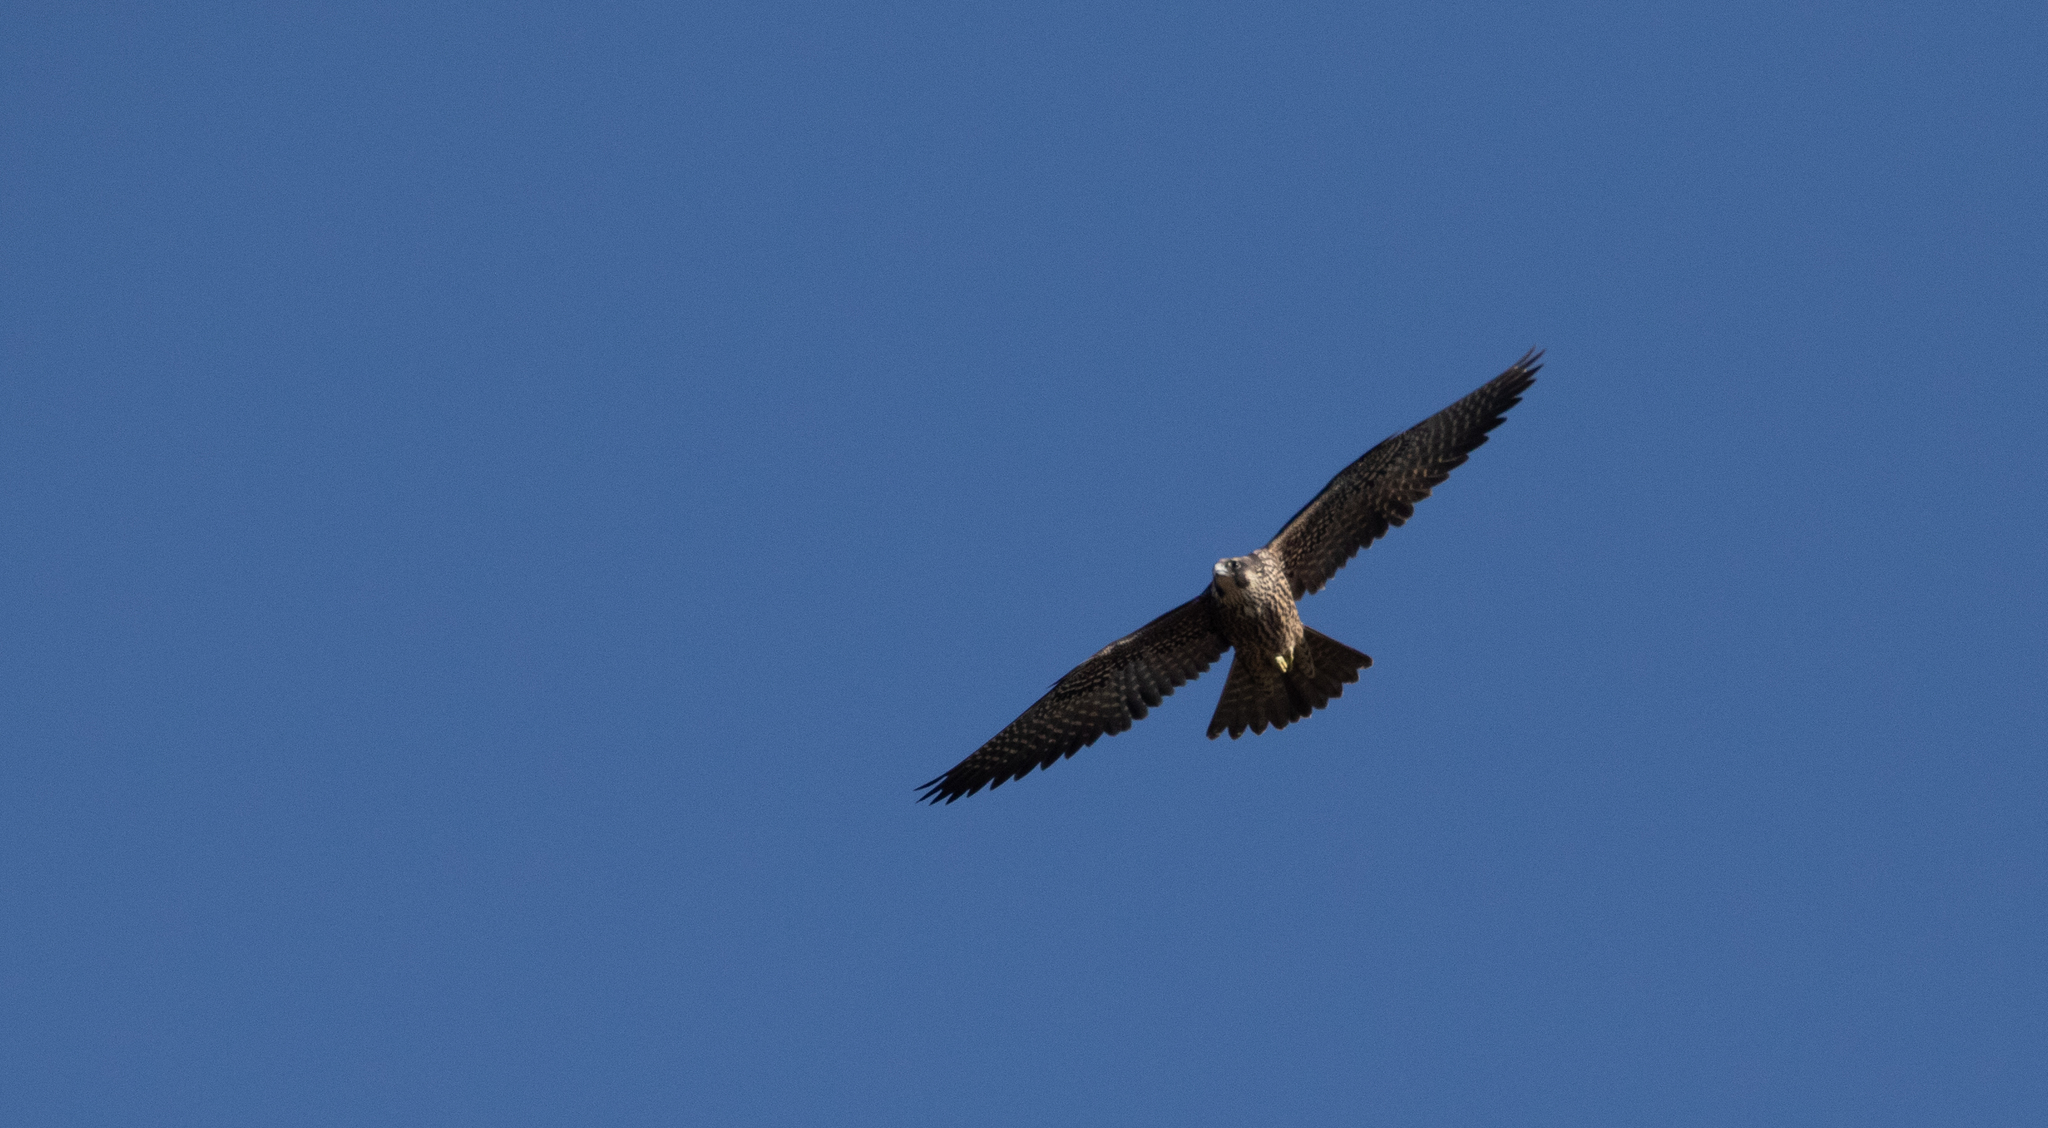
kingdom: Animalia
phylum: Chordata
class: Aves
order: Falconiformes
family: Falconidae
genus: Falco
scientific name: Falco peregrinus
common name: Peregrine falcon
